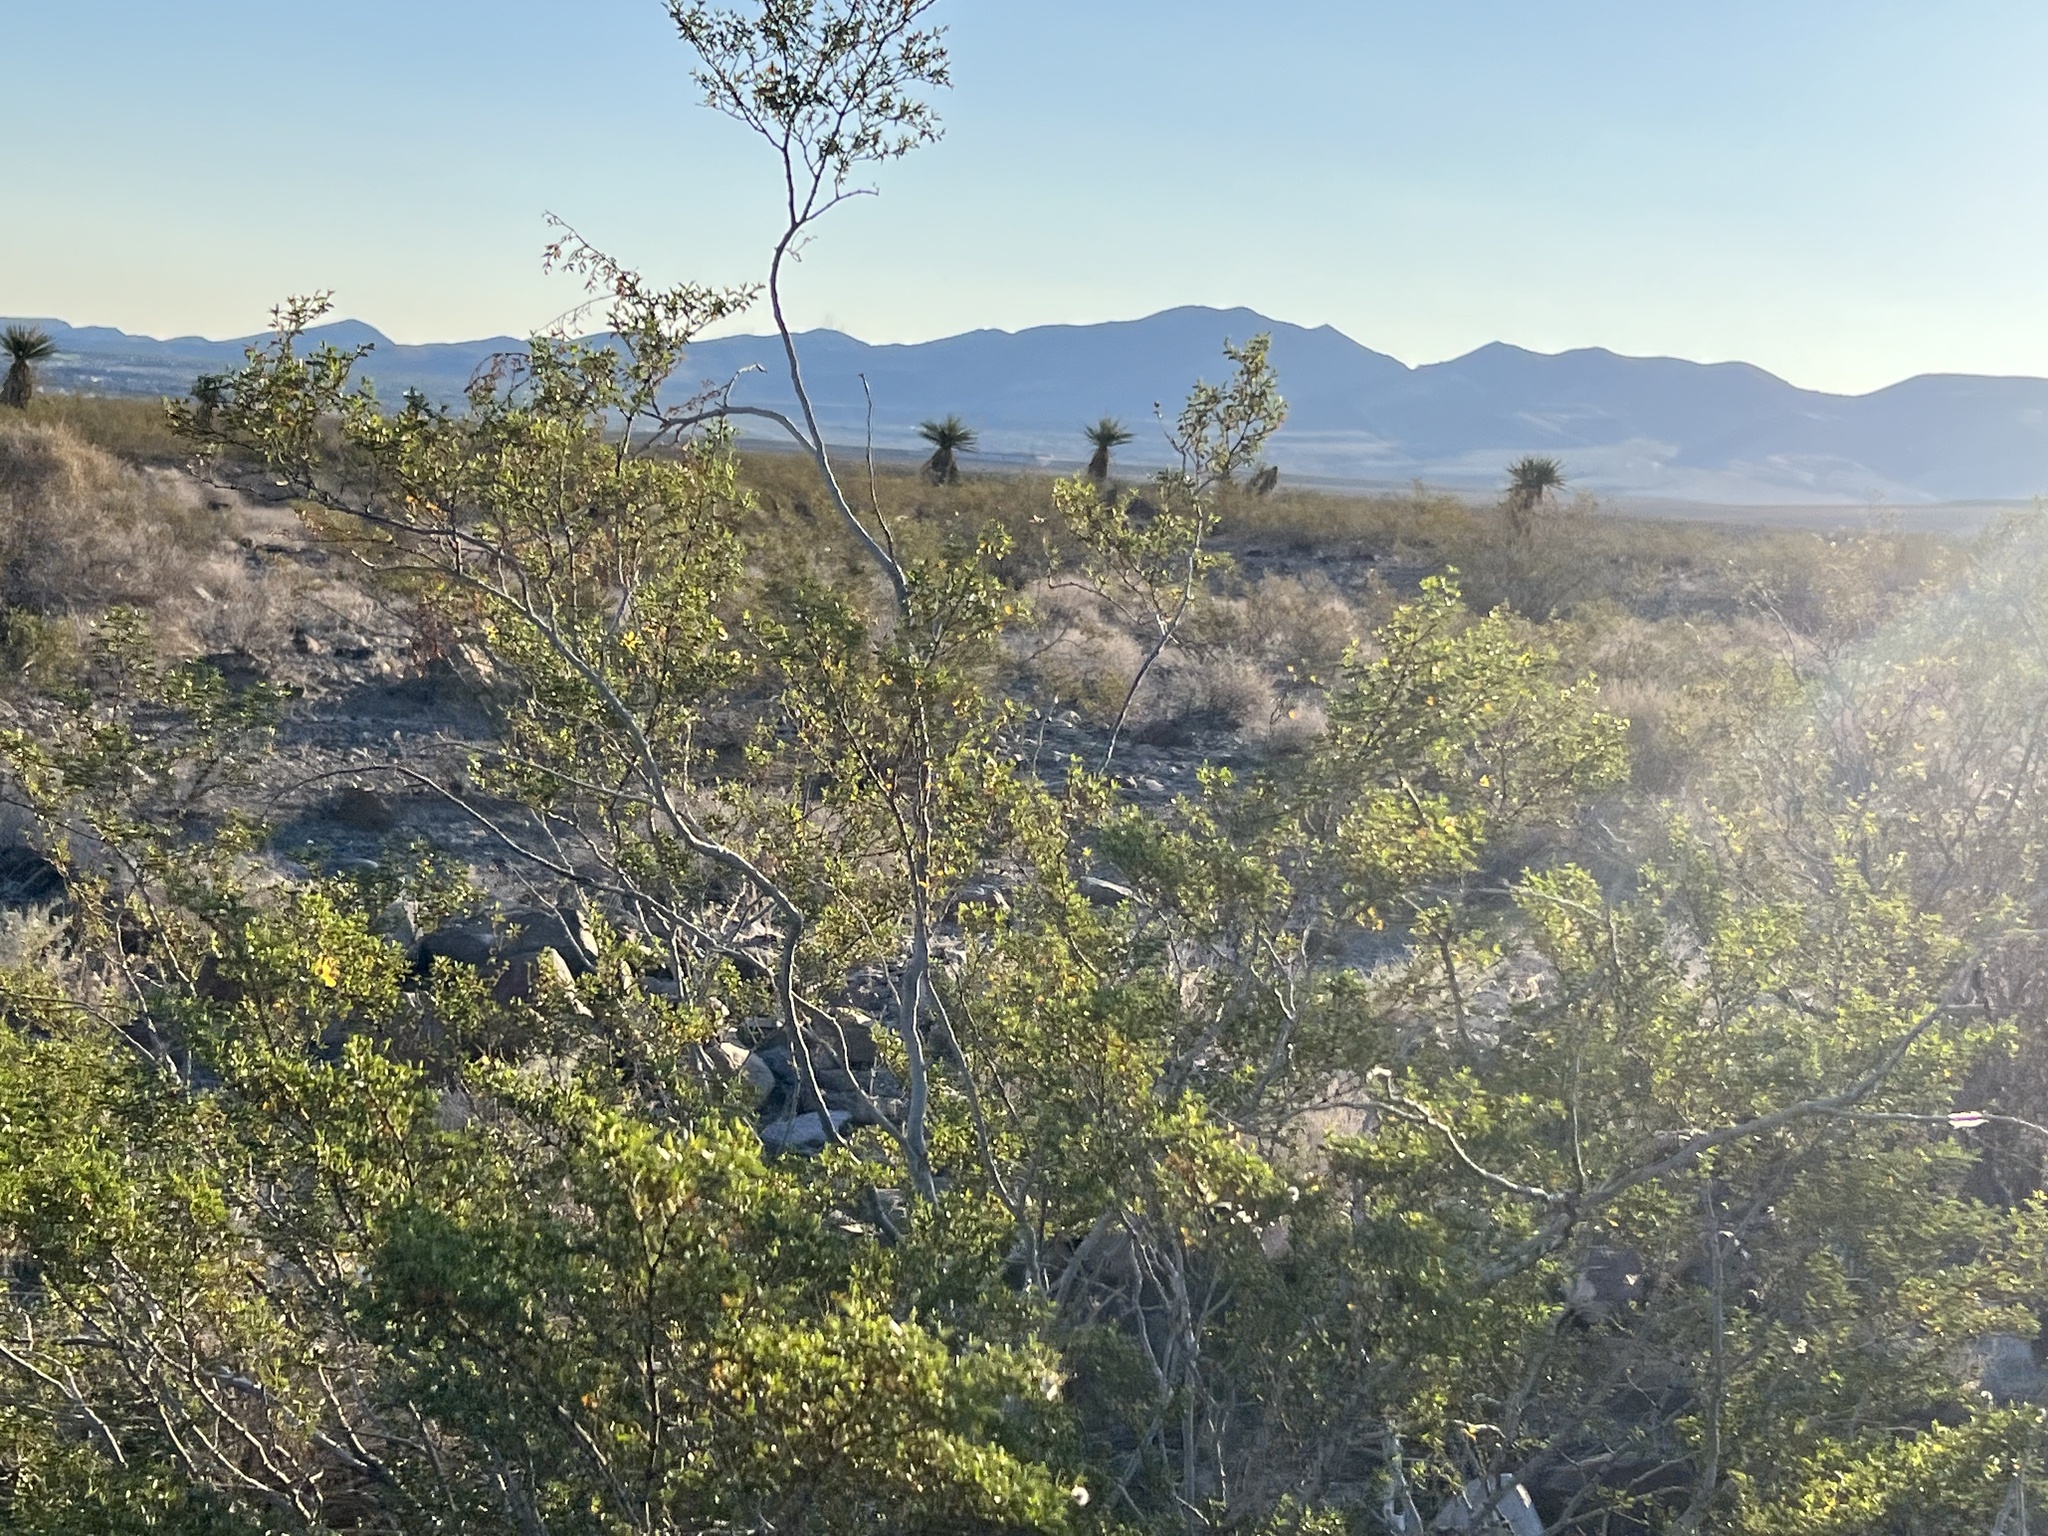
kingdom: Plantae
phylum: Tracheophyta
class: Magnoliopsida
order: Zygophyllales
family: Zygophyllaceae
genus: Larrea
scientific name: Larrea tridentata
